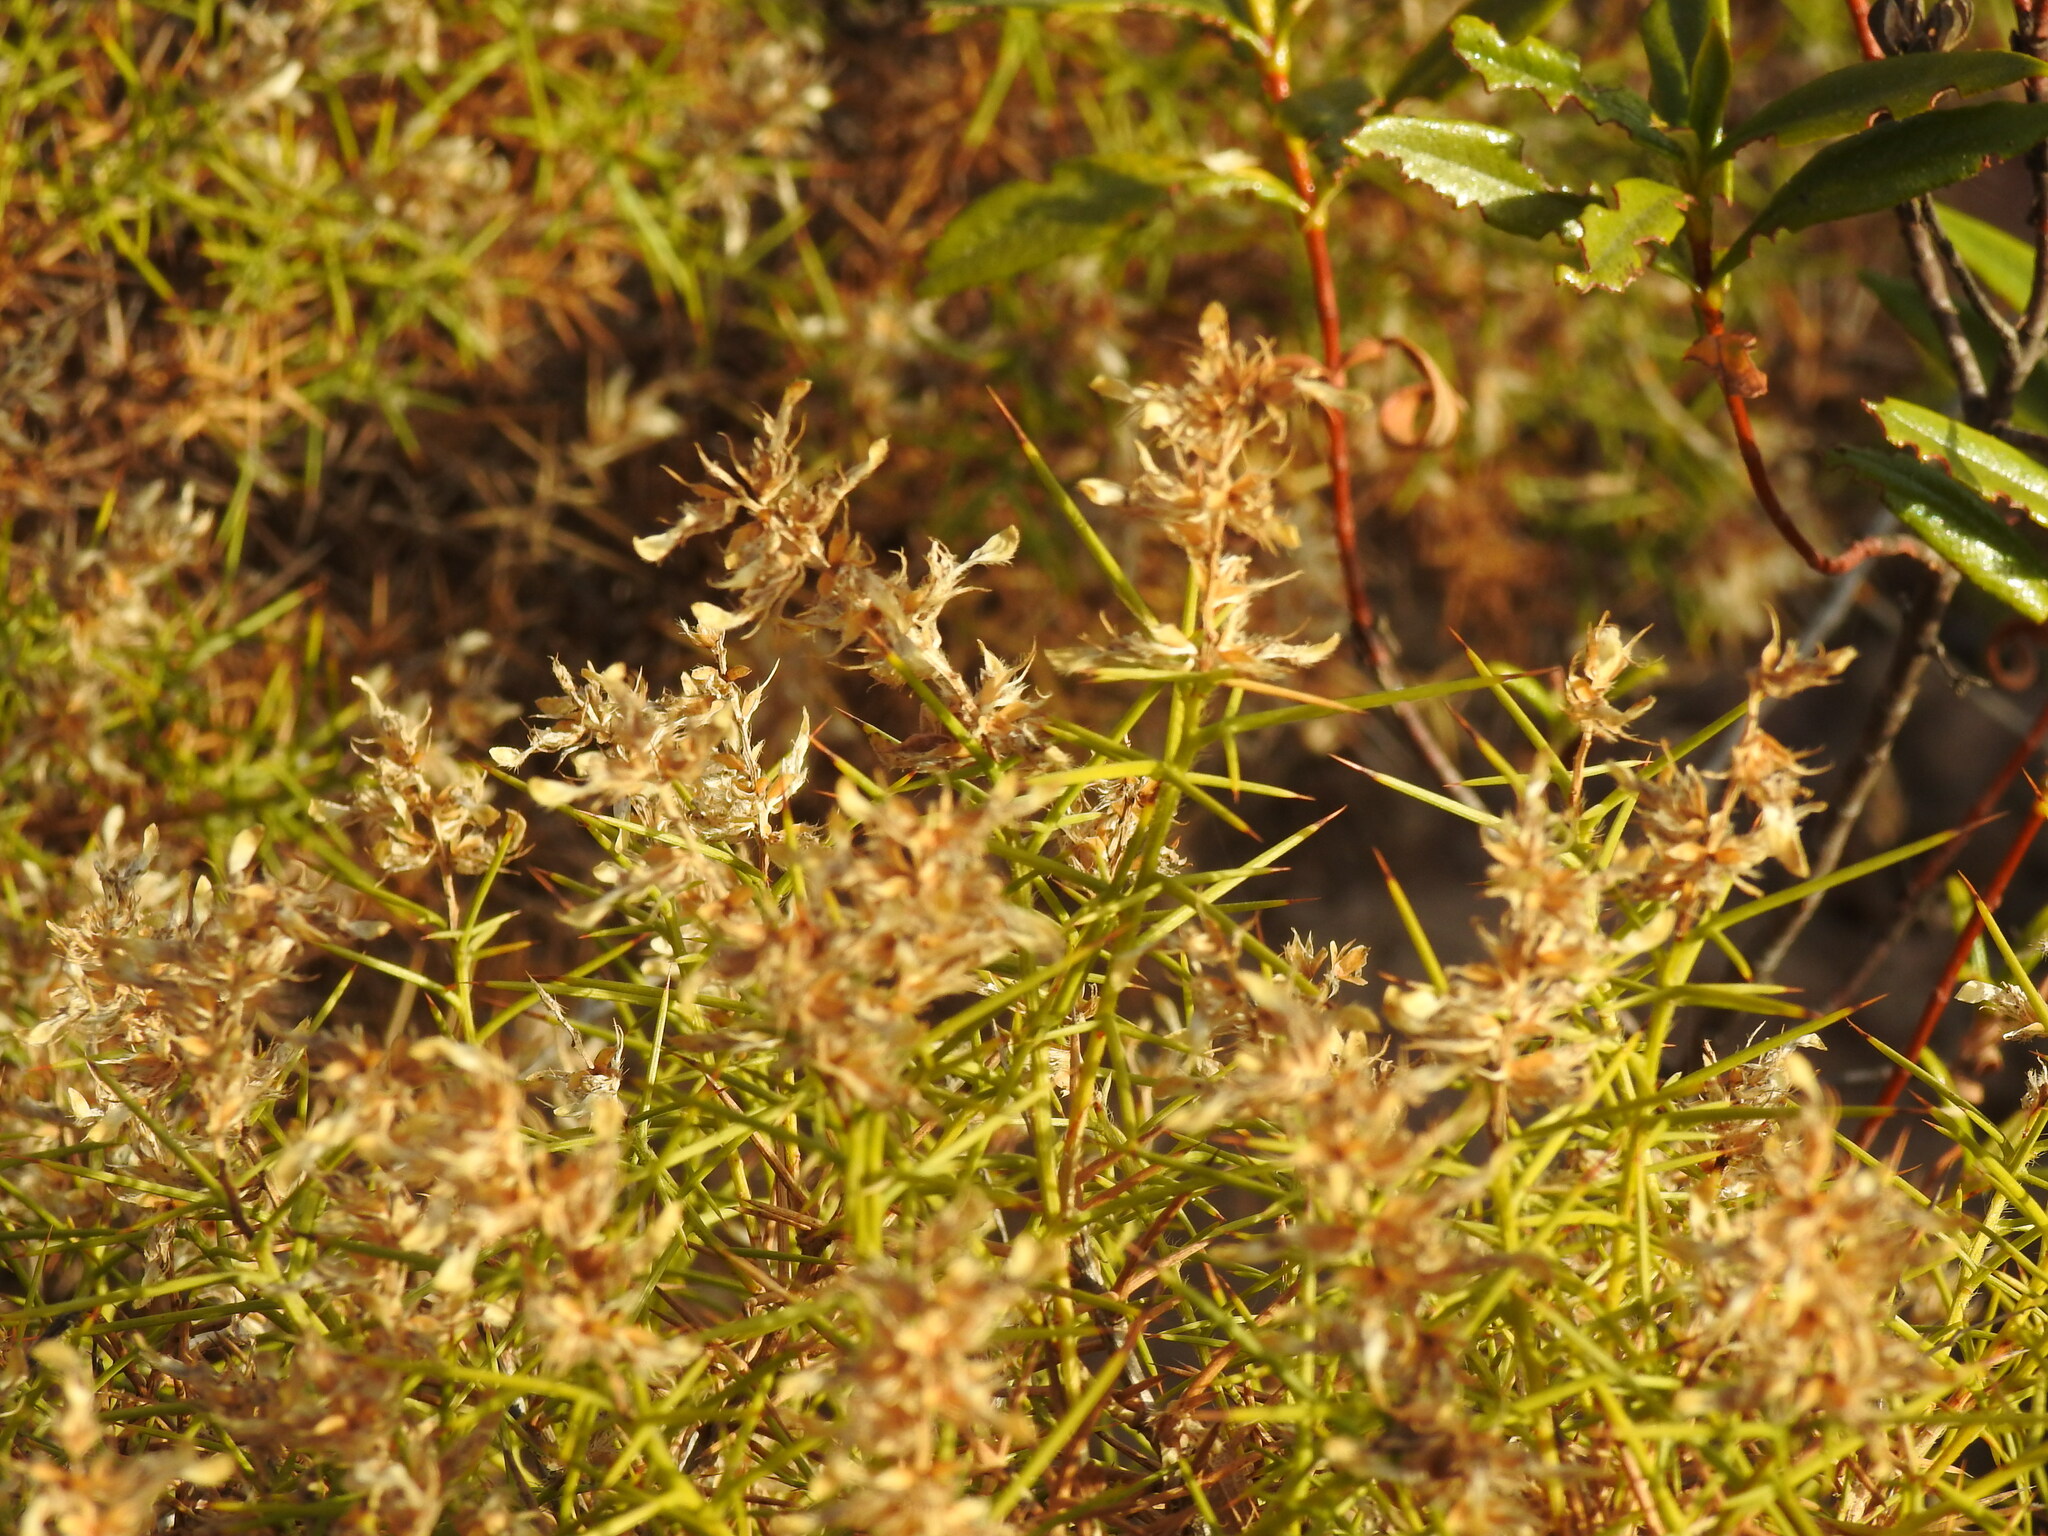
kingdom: Plantae
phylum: Tracheophyta
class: Magnoliopsida
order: Fabales
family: Fabaceae
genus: Genista
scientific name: Genista hirsuta
